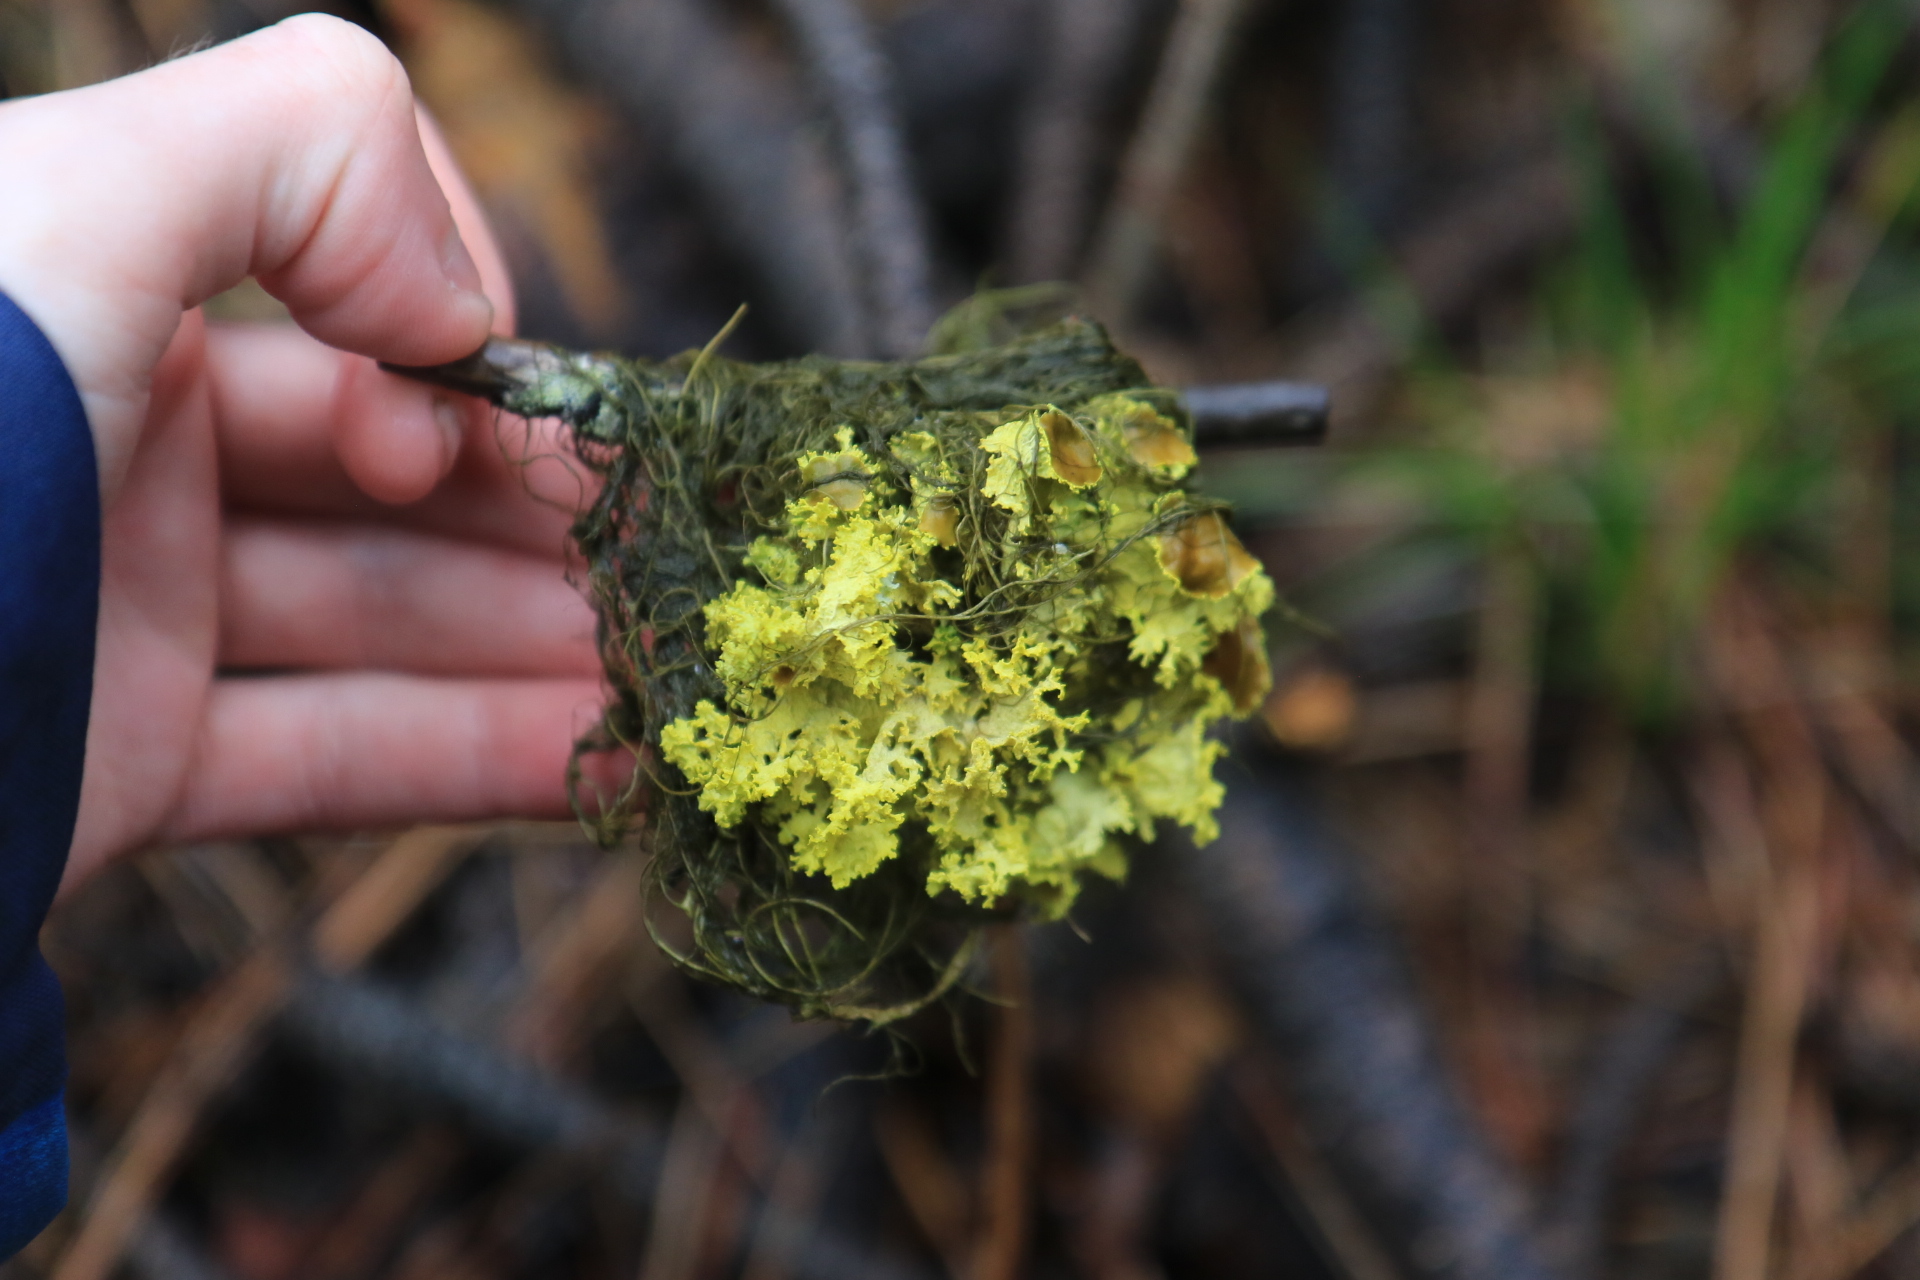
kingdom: Fungi
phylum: Ascomycota
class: Lecanoromycetes
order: Lecanorales
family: Parmeliaceae
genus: Vulpicida
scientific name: Vulpicida canadensis
